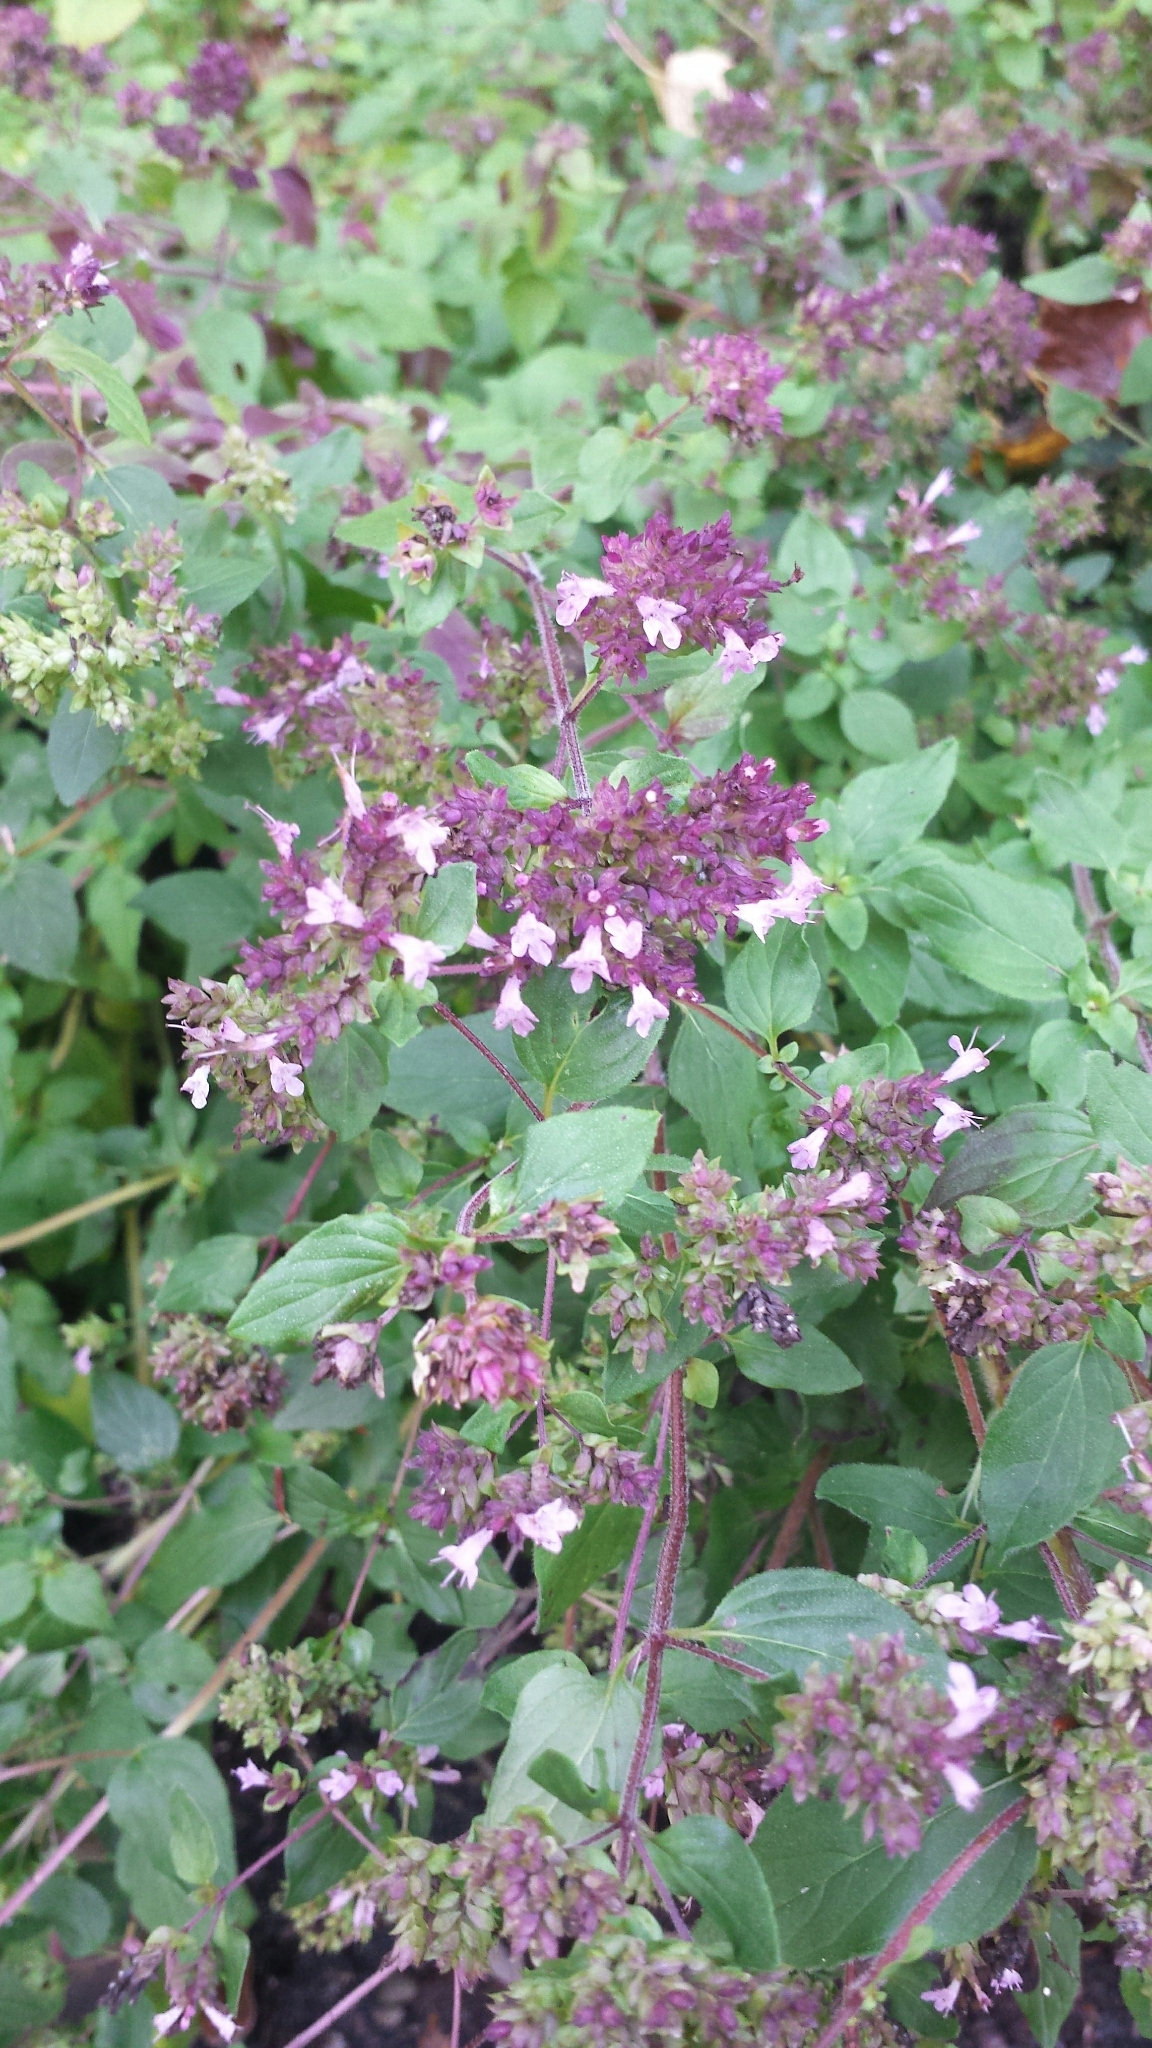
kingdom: Plantae
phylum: Tracheophyta
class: Magnoliopsida
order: Lamiales
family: Lamiaceae
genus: Origanum
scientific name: Origanum vulgare
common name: Wild marjoram
